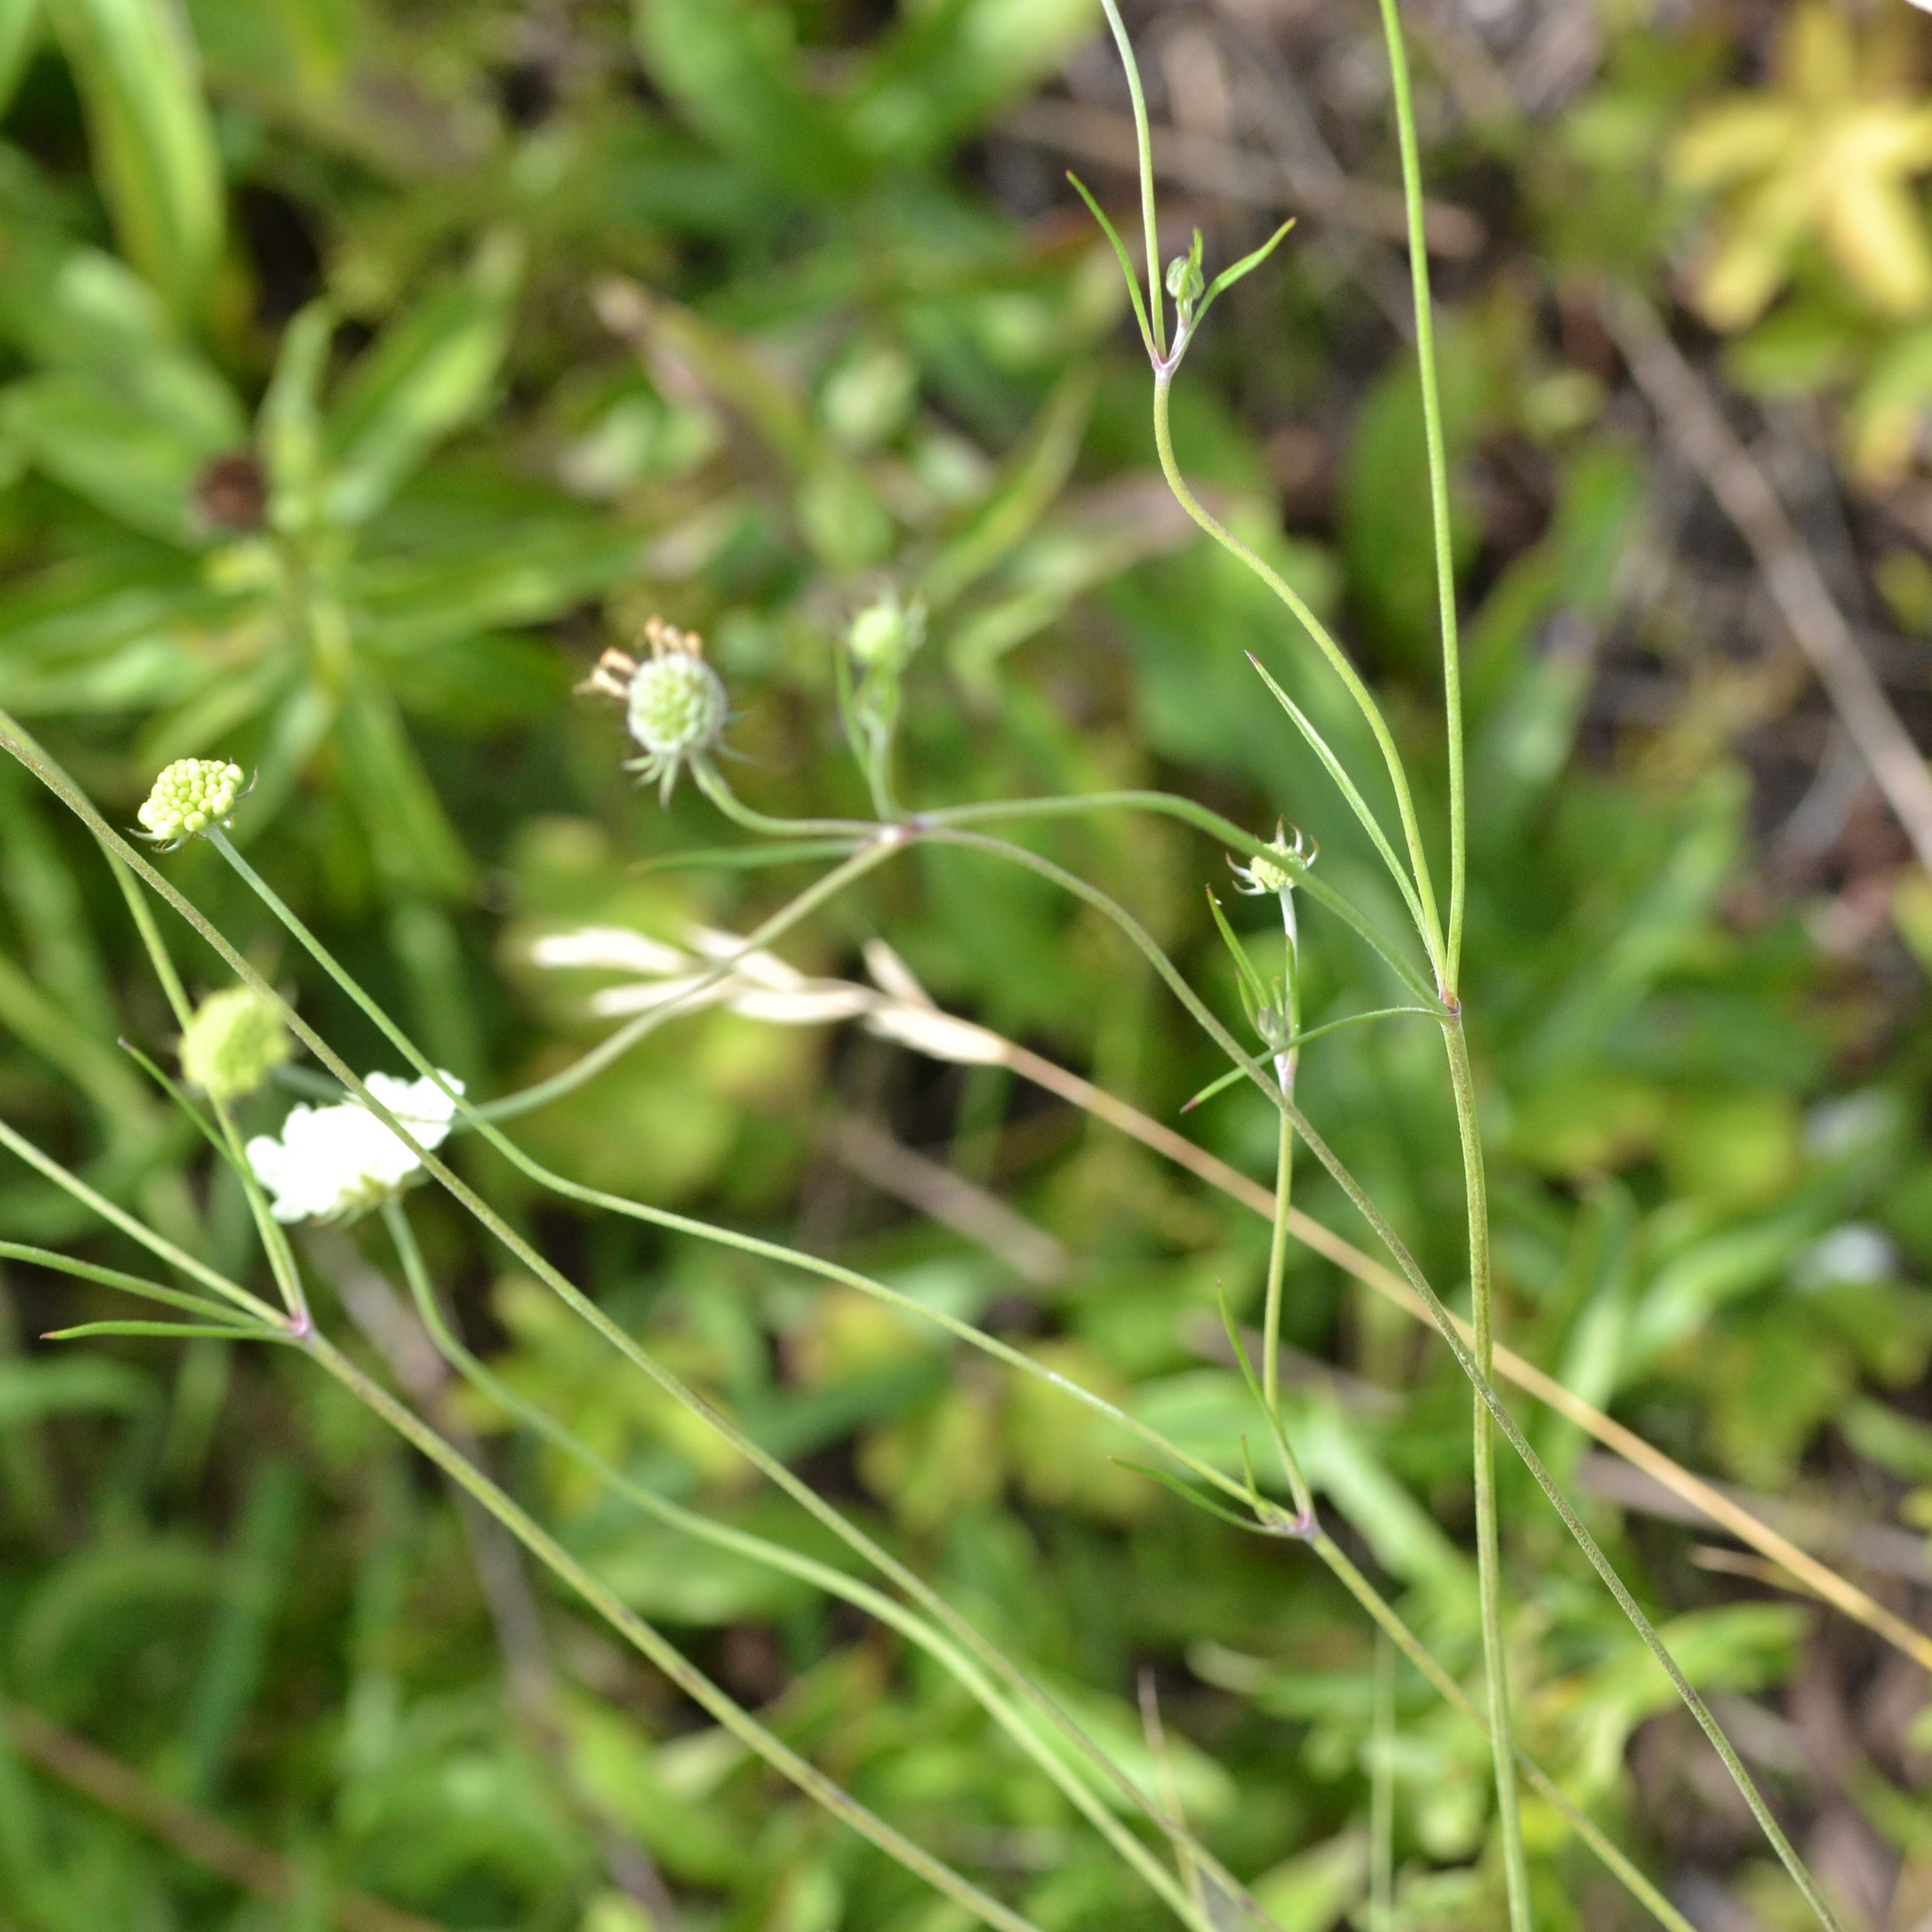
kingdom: Plantae
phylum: Tracheophyta
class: Magnoliopsida
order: Dipsacales
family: Caprifoliaceae
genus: Scabiosa
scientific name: Scabiosa ochroleuca
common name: Cream pincushions
